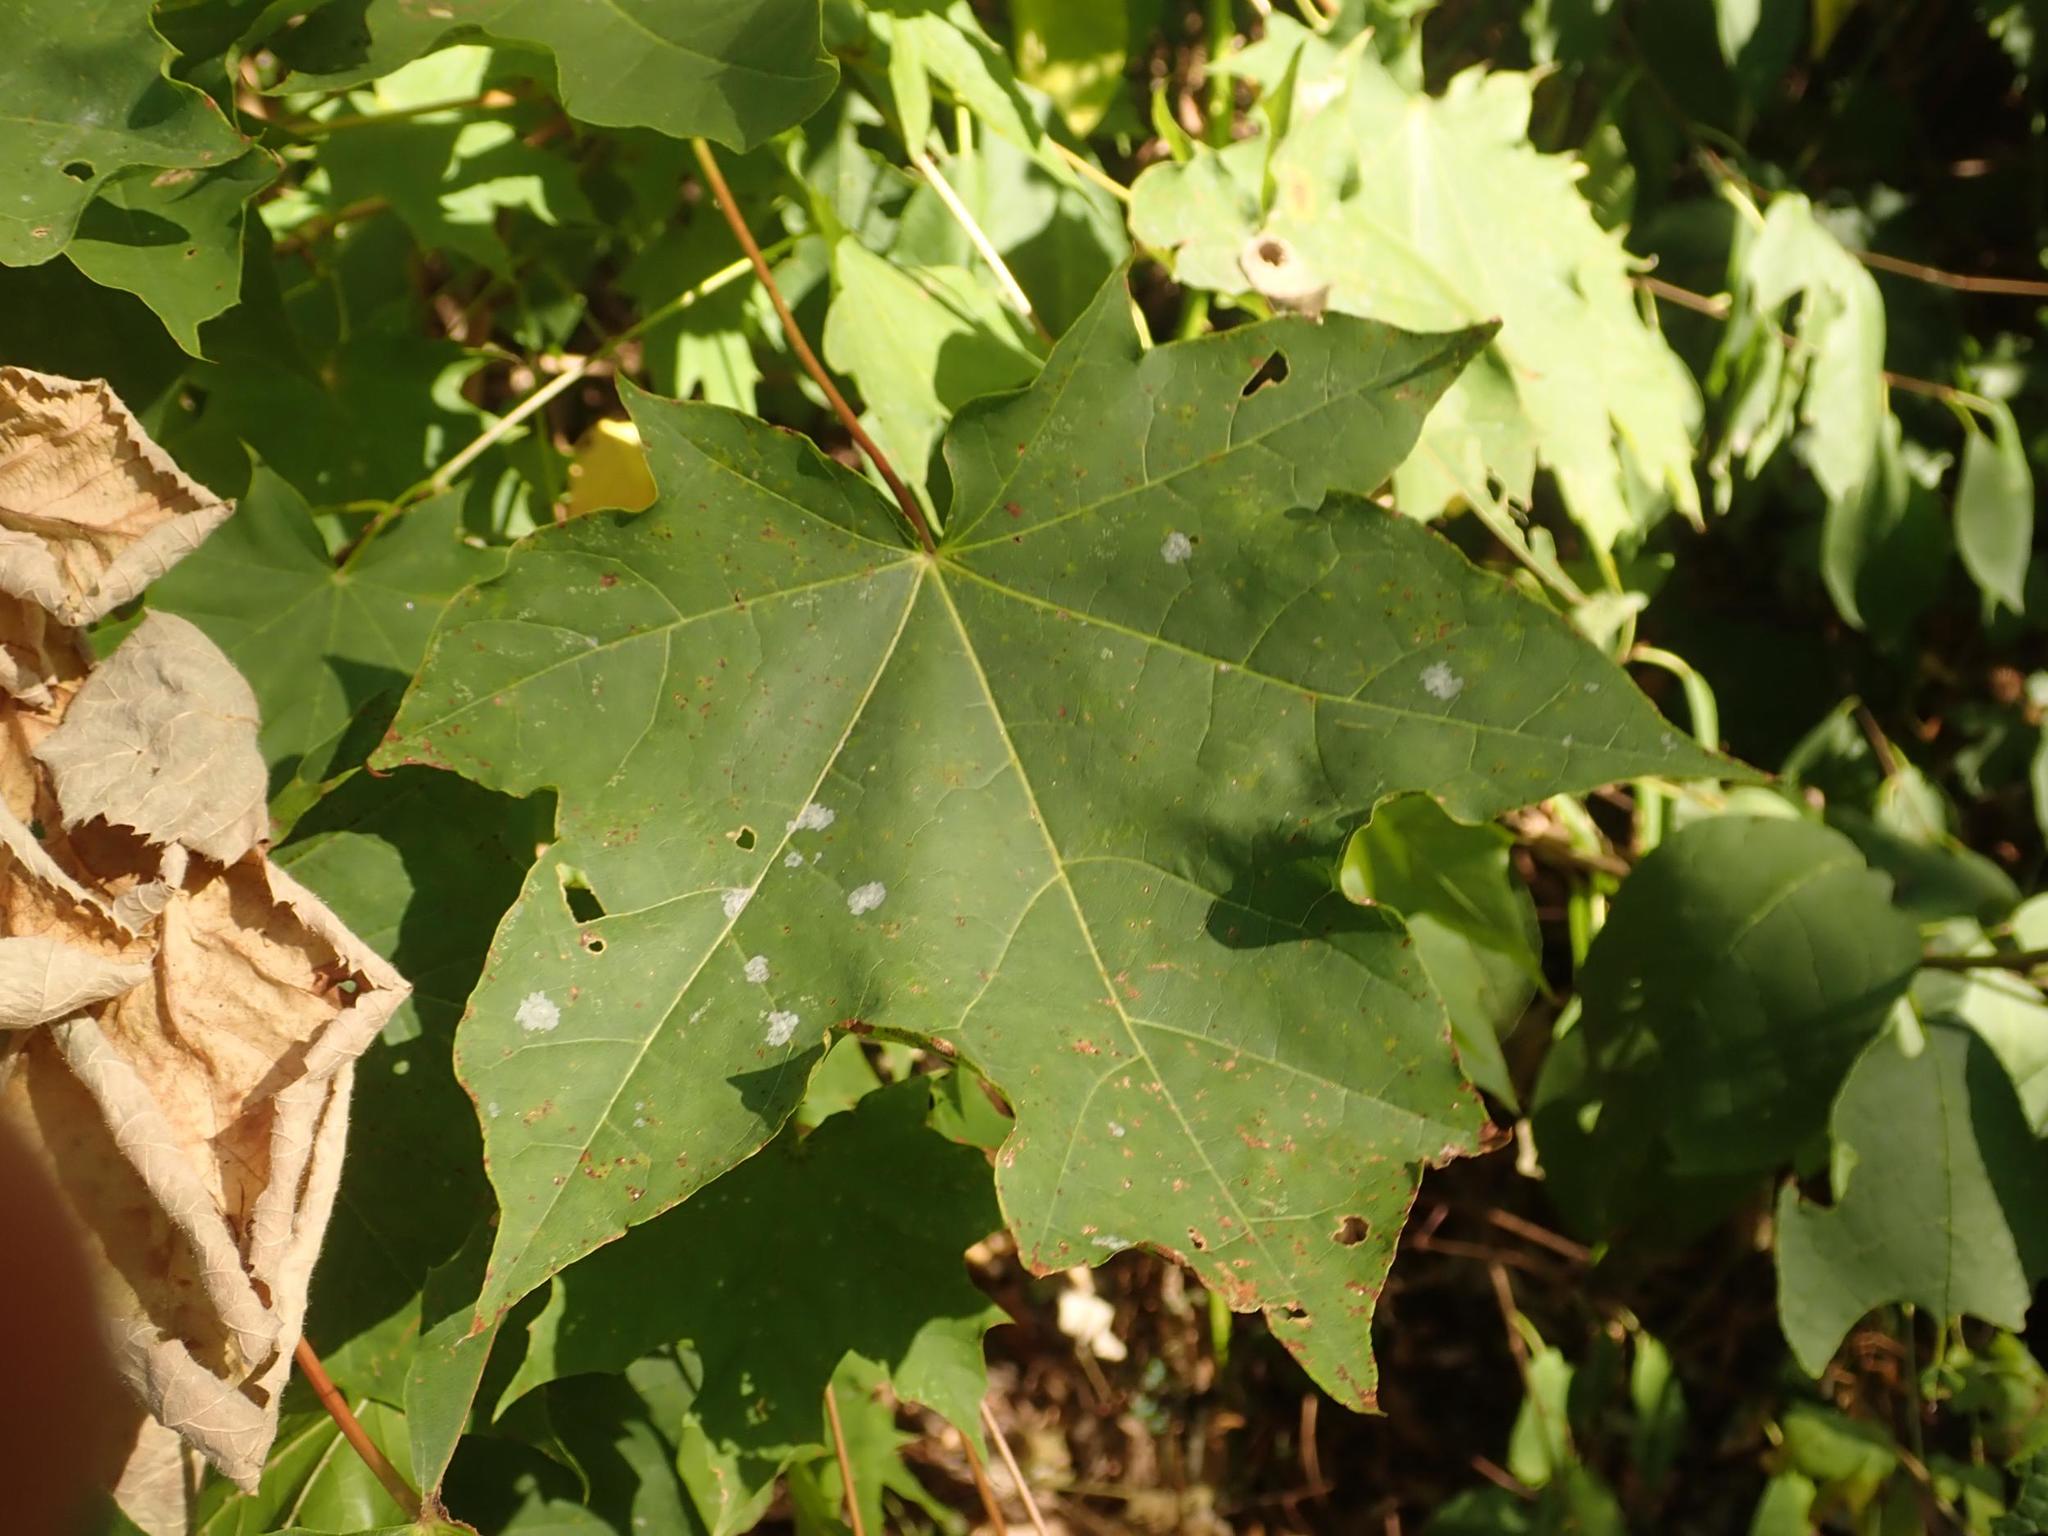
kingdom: Plantae
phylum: Tracheophyta
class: Magnoliopsida
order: Sapindales
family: Sapindaceae
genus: Acer
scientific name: Acer platanoides
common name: Norway maple
